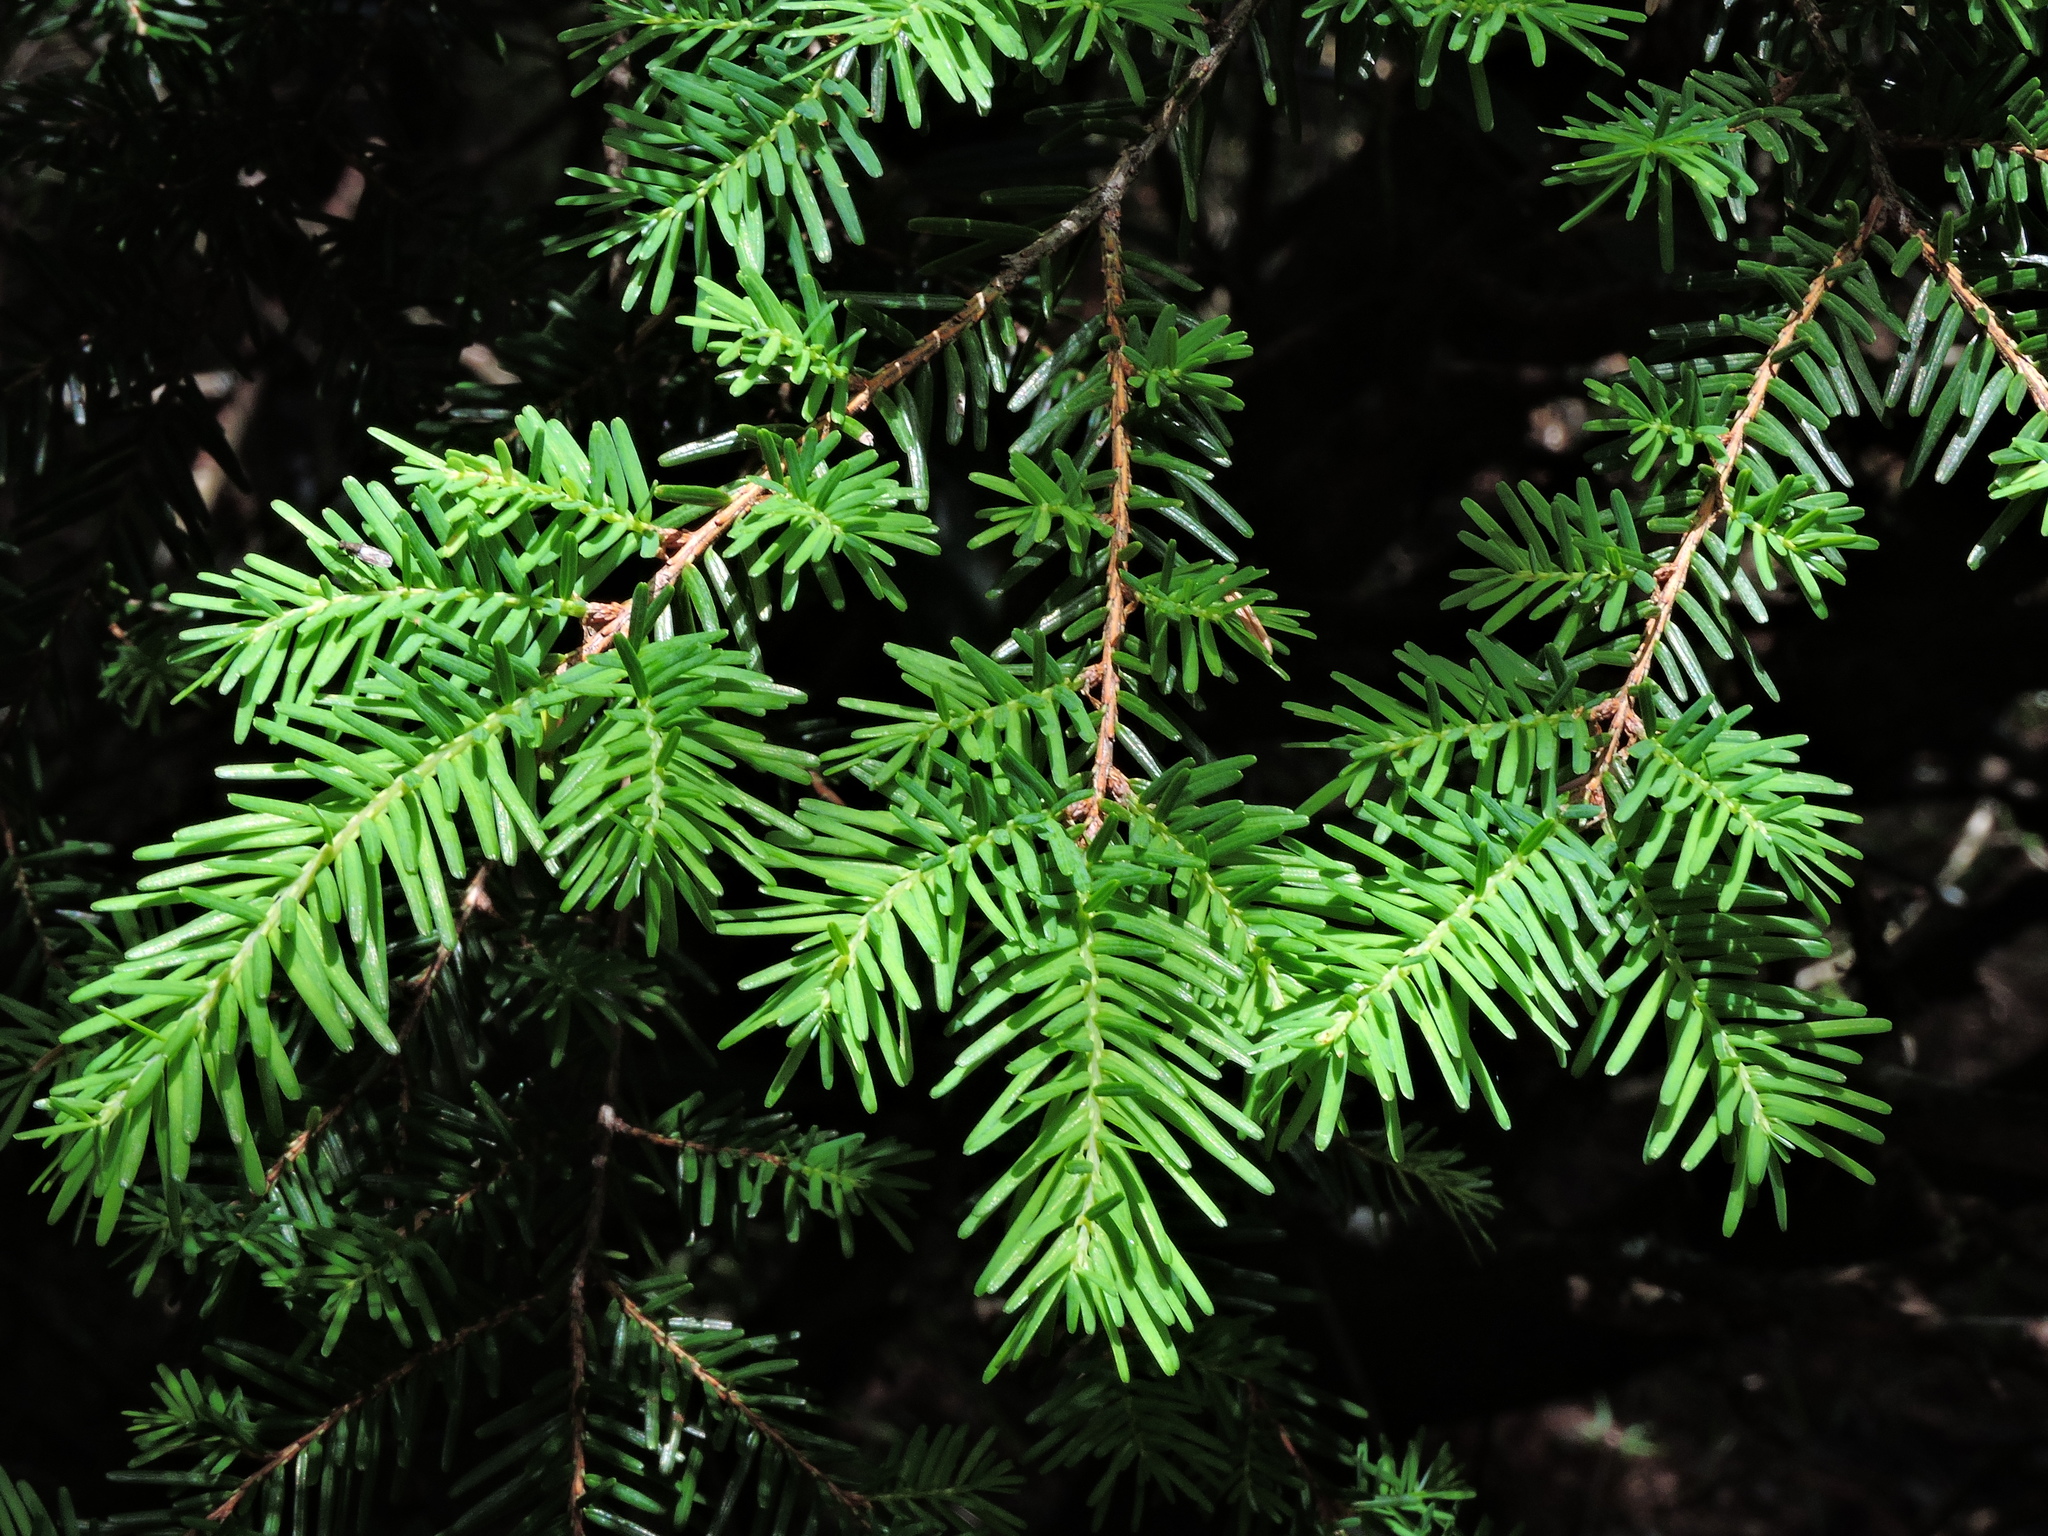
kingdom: Plantae
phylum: Tracheophyta
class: Pinopsida
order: Pinales
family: Pinaceae
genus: Tsuga
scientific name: Tsuga chinensis
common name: Chinese hemlock
